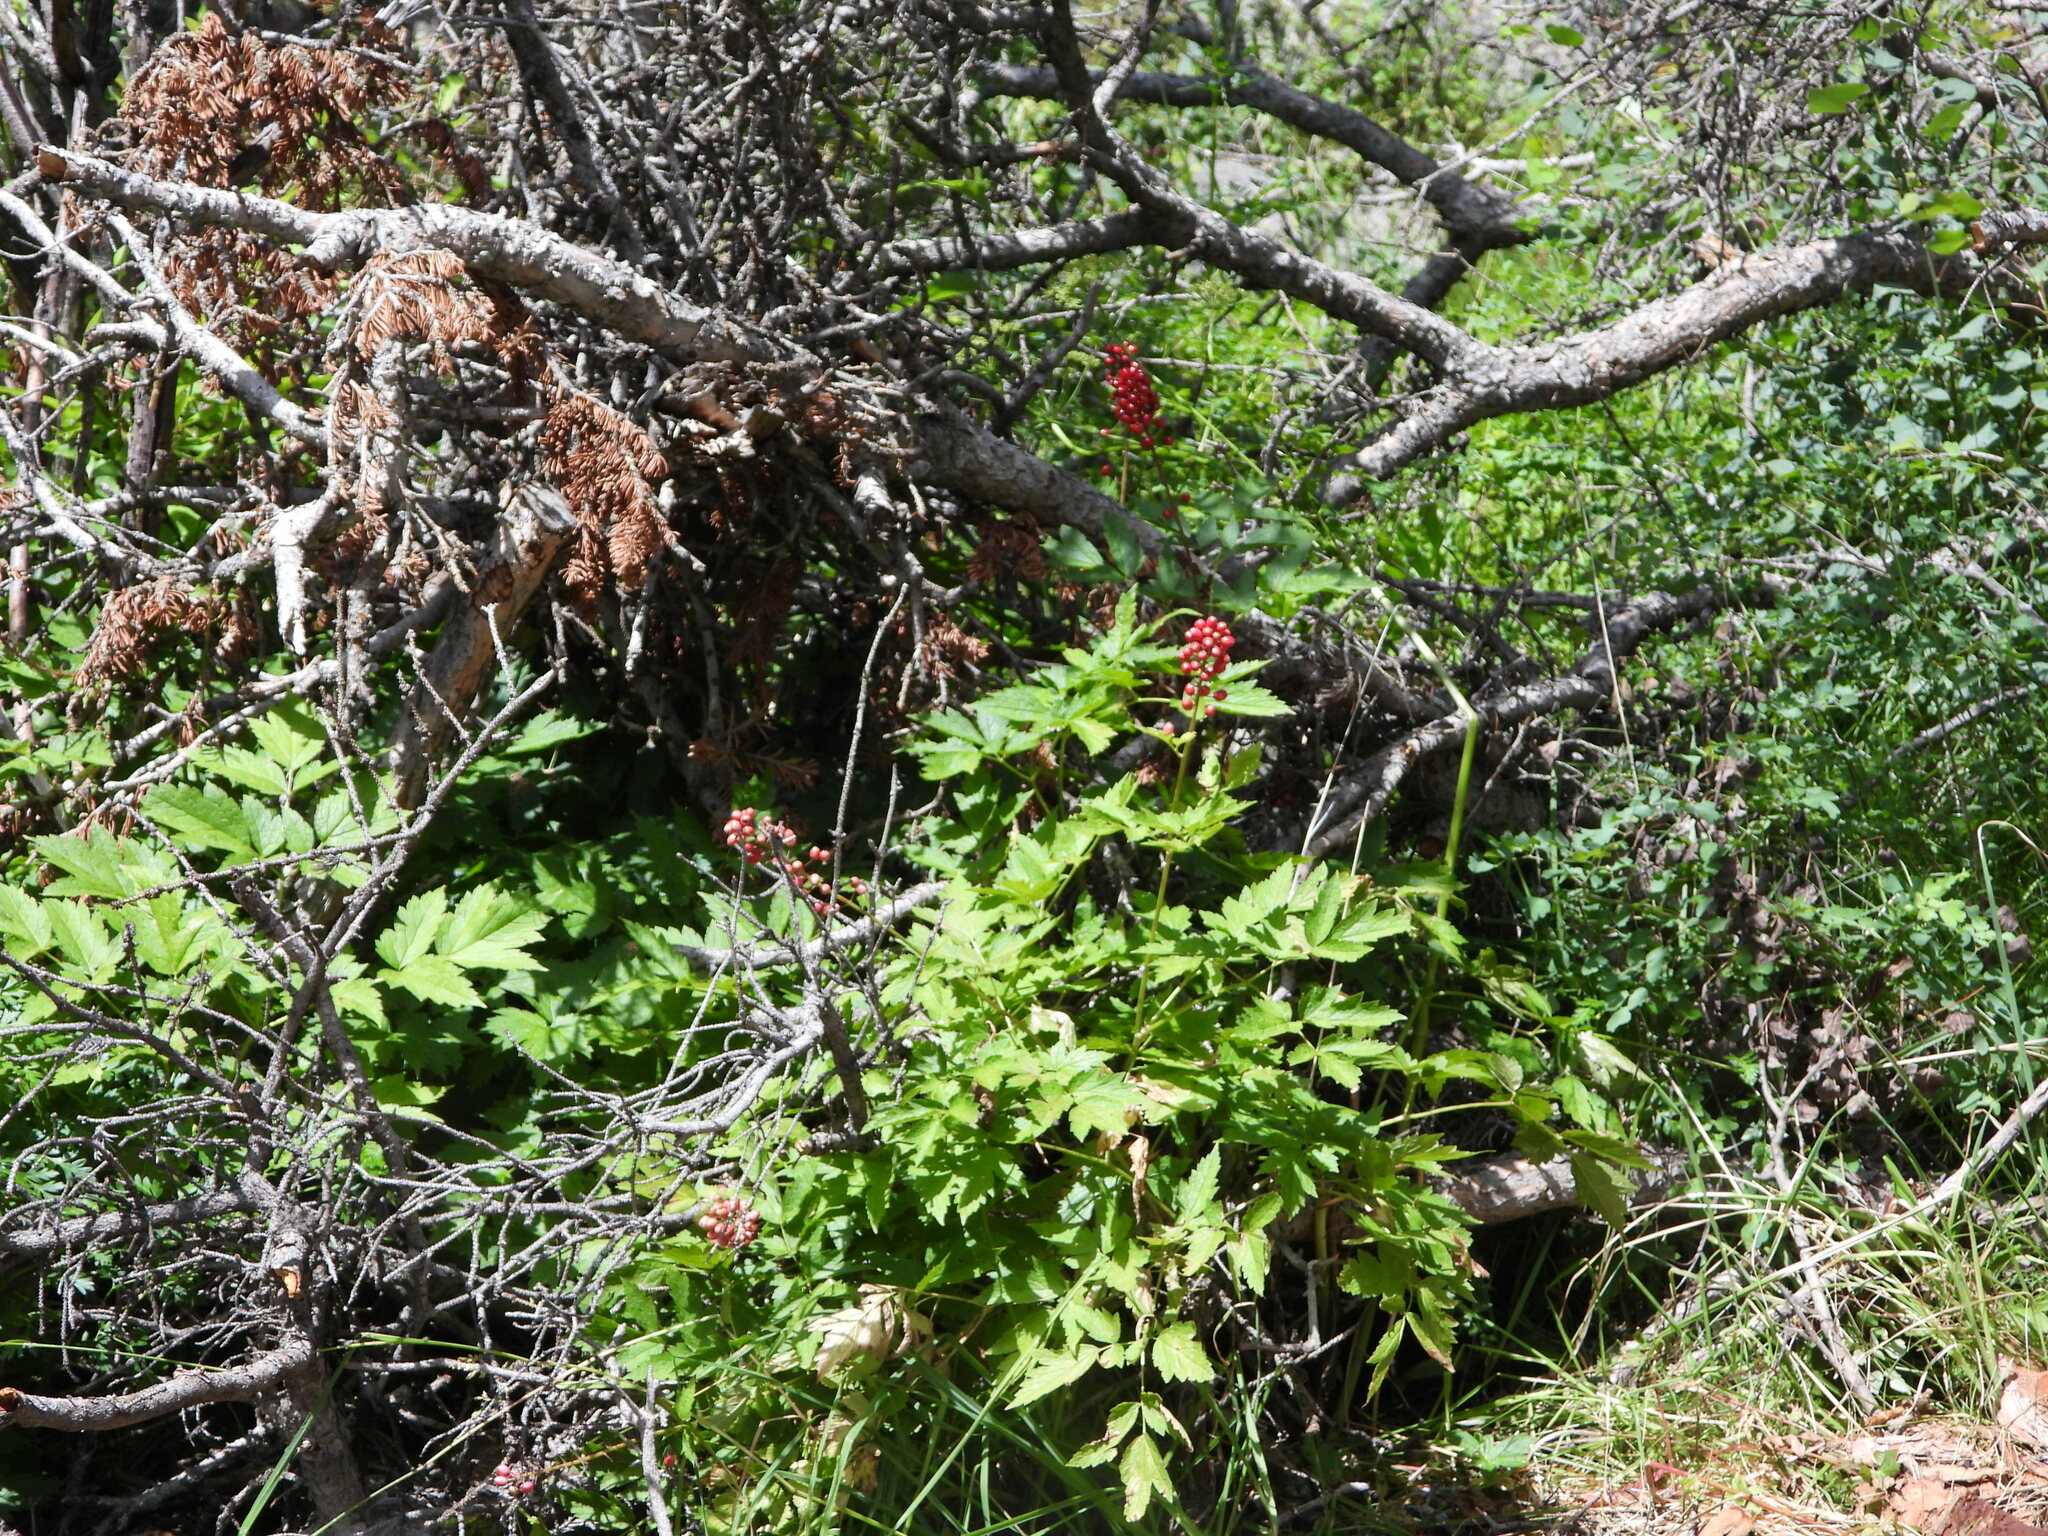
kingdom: Plantae
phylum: Tracheophyta
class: Magnoliopsida
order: Ranunculales
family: Ranunculaceae
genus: Actaea
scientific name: Actaea rubra
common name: Red baneberry
